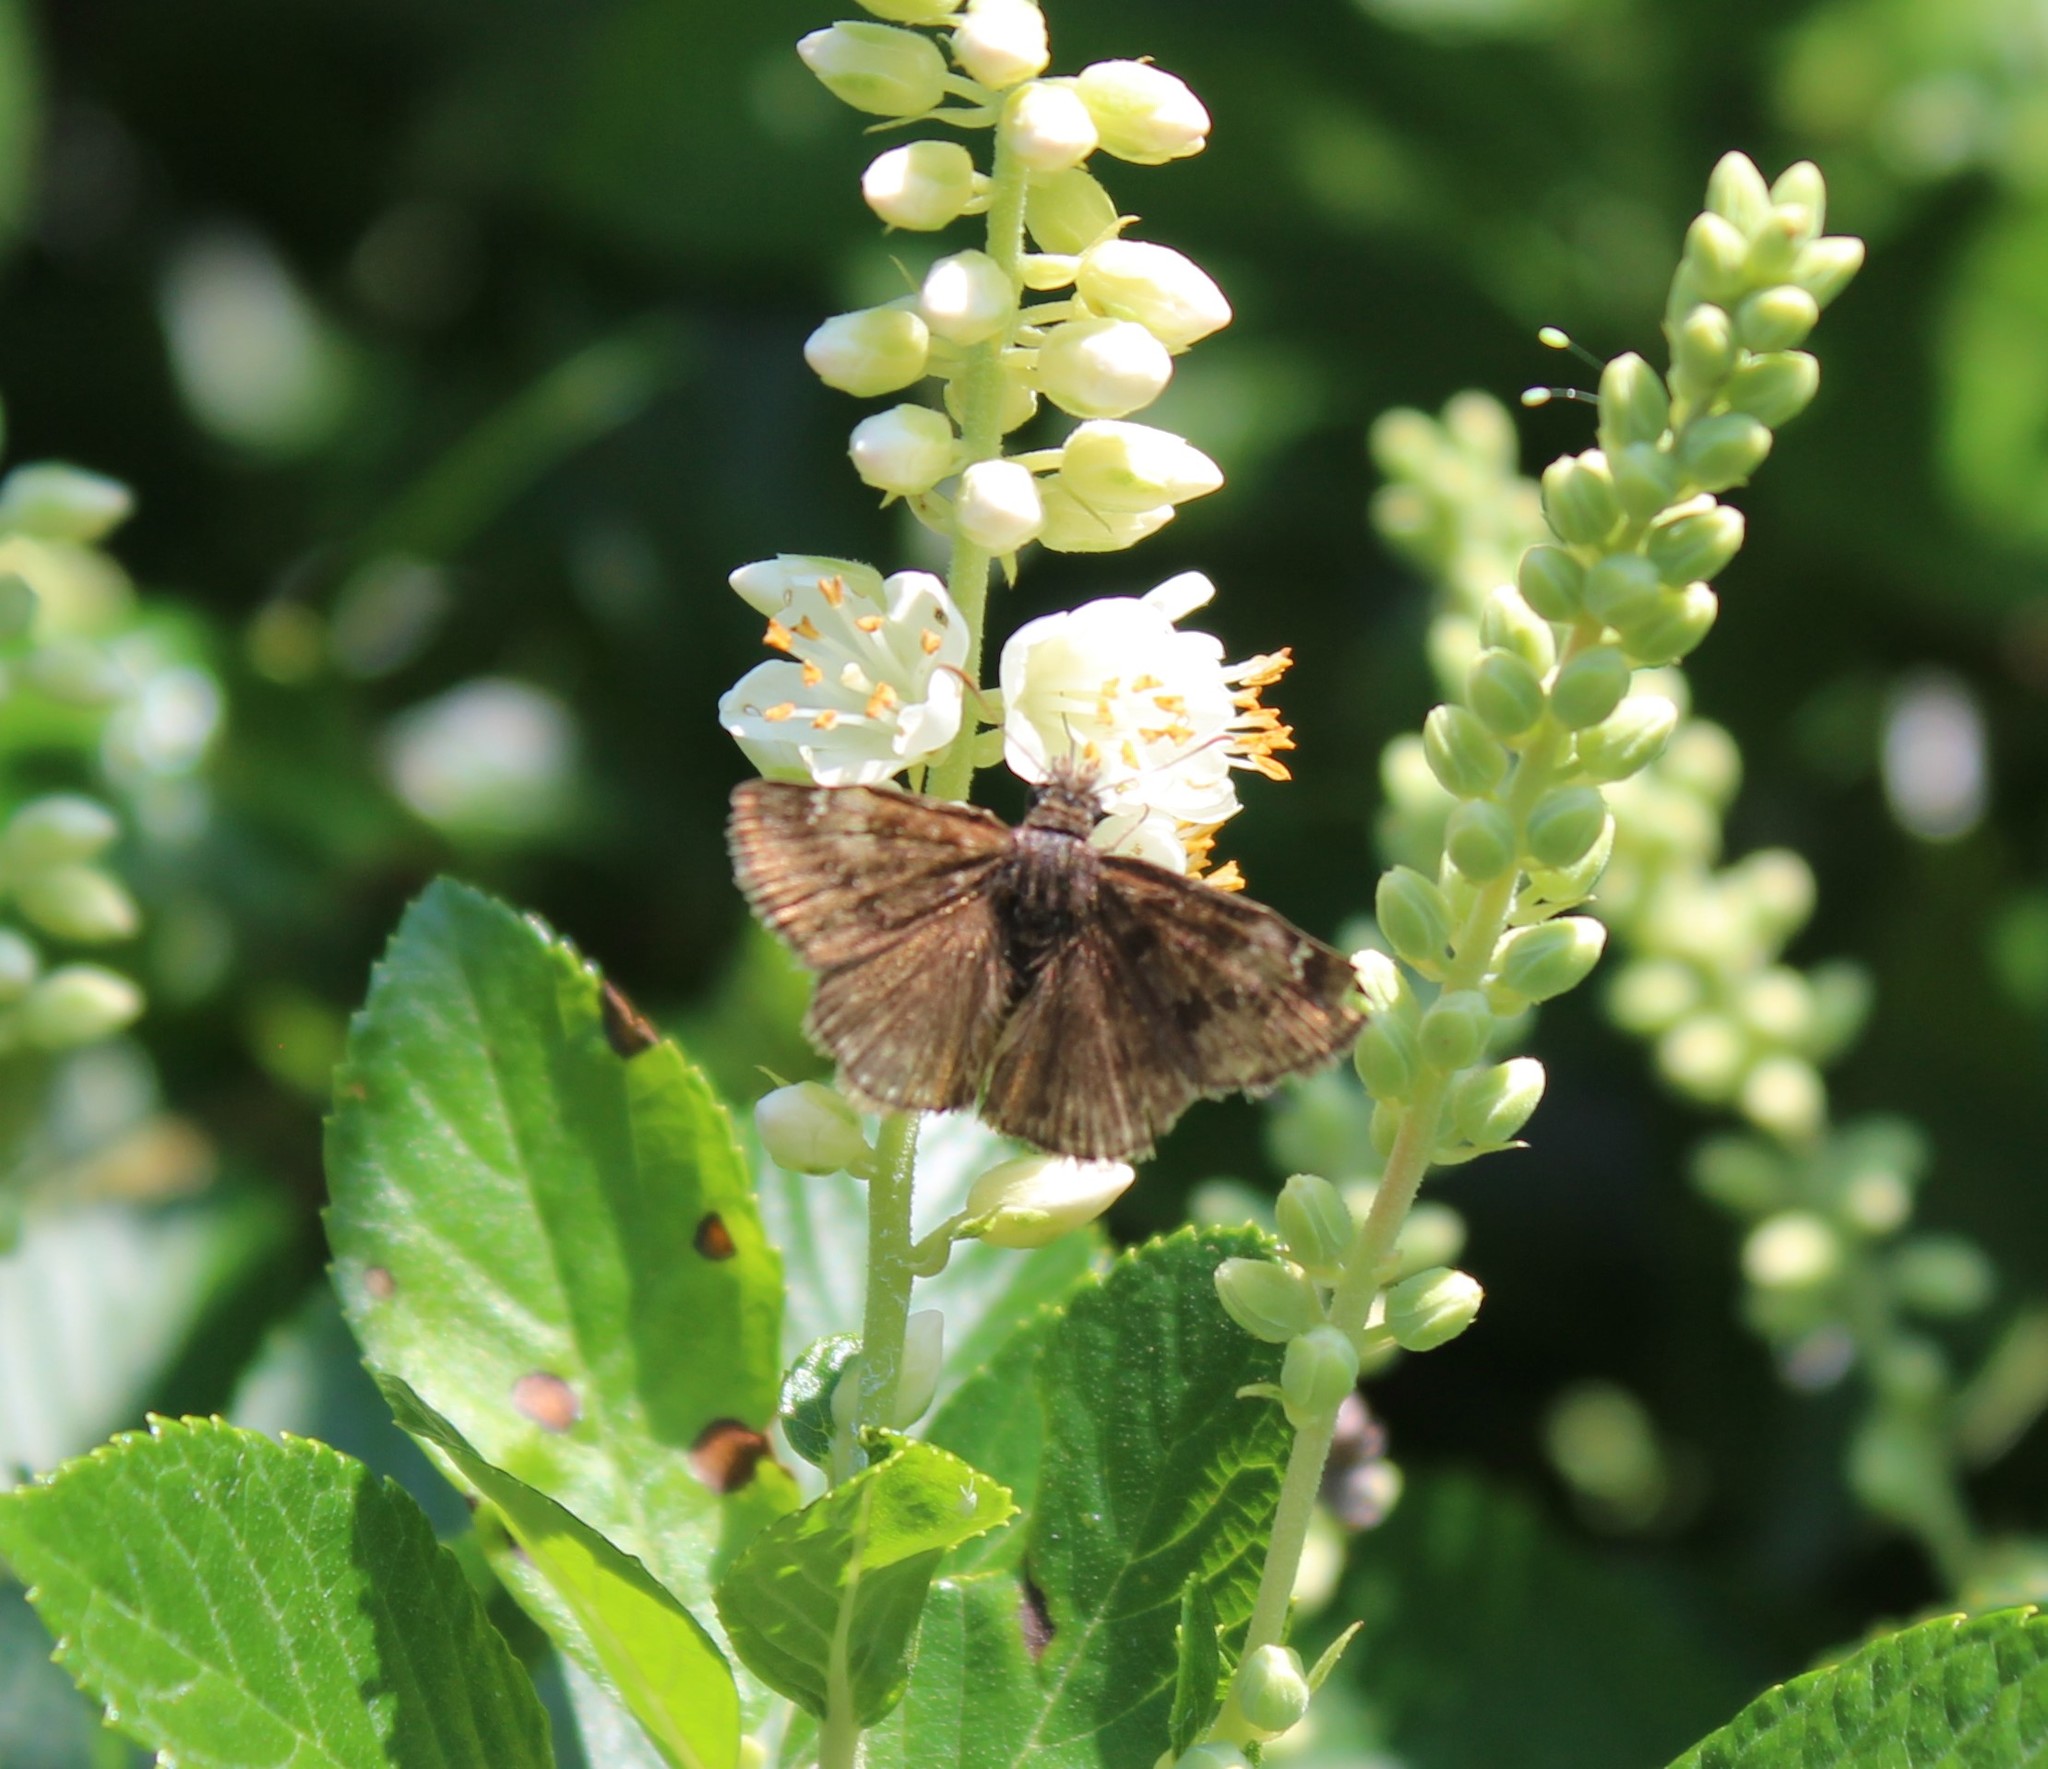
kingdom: Animalia
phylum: Arthropoda
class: Insecta
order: Lepidoptera
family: Hesperiidae
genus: Erynnis
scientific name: Erynnis baptisiae
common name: Wild indigo duskywing
